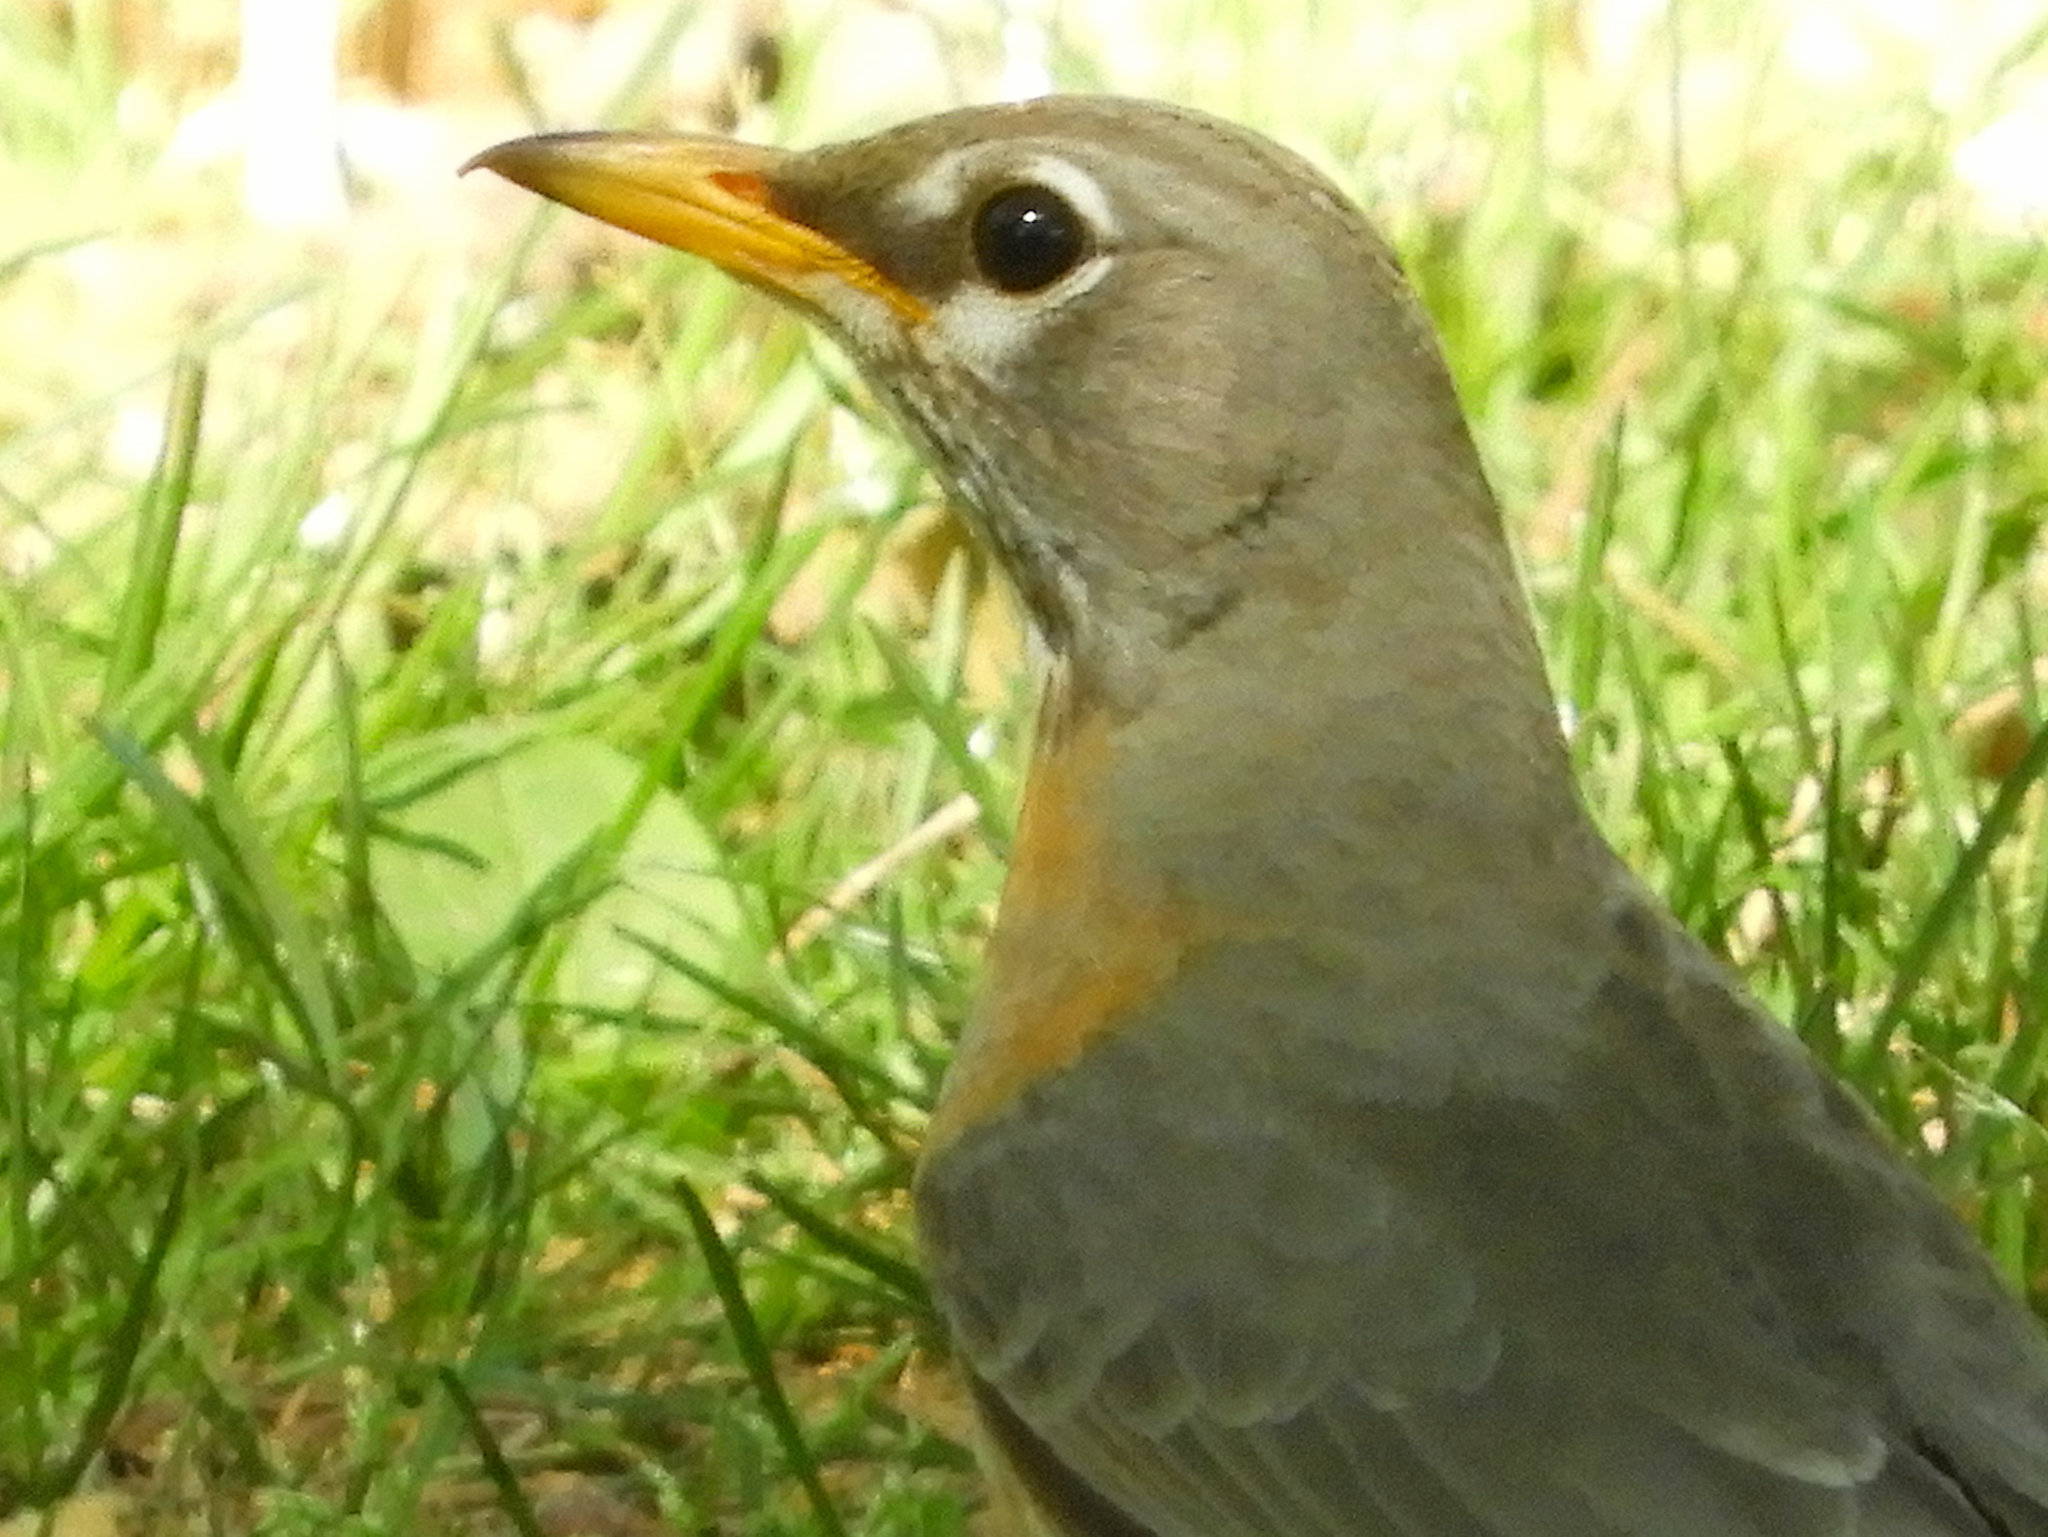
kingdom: Animalia
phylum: Chordata
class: Aves
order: Passeriformes
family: Turdidae
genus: Turdus
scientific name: Turdus migratorius
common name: American robin
